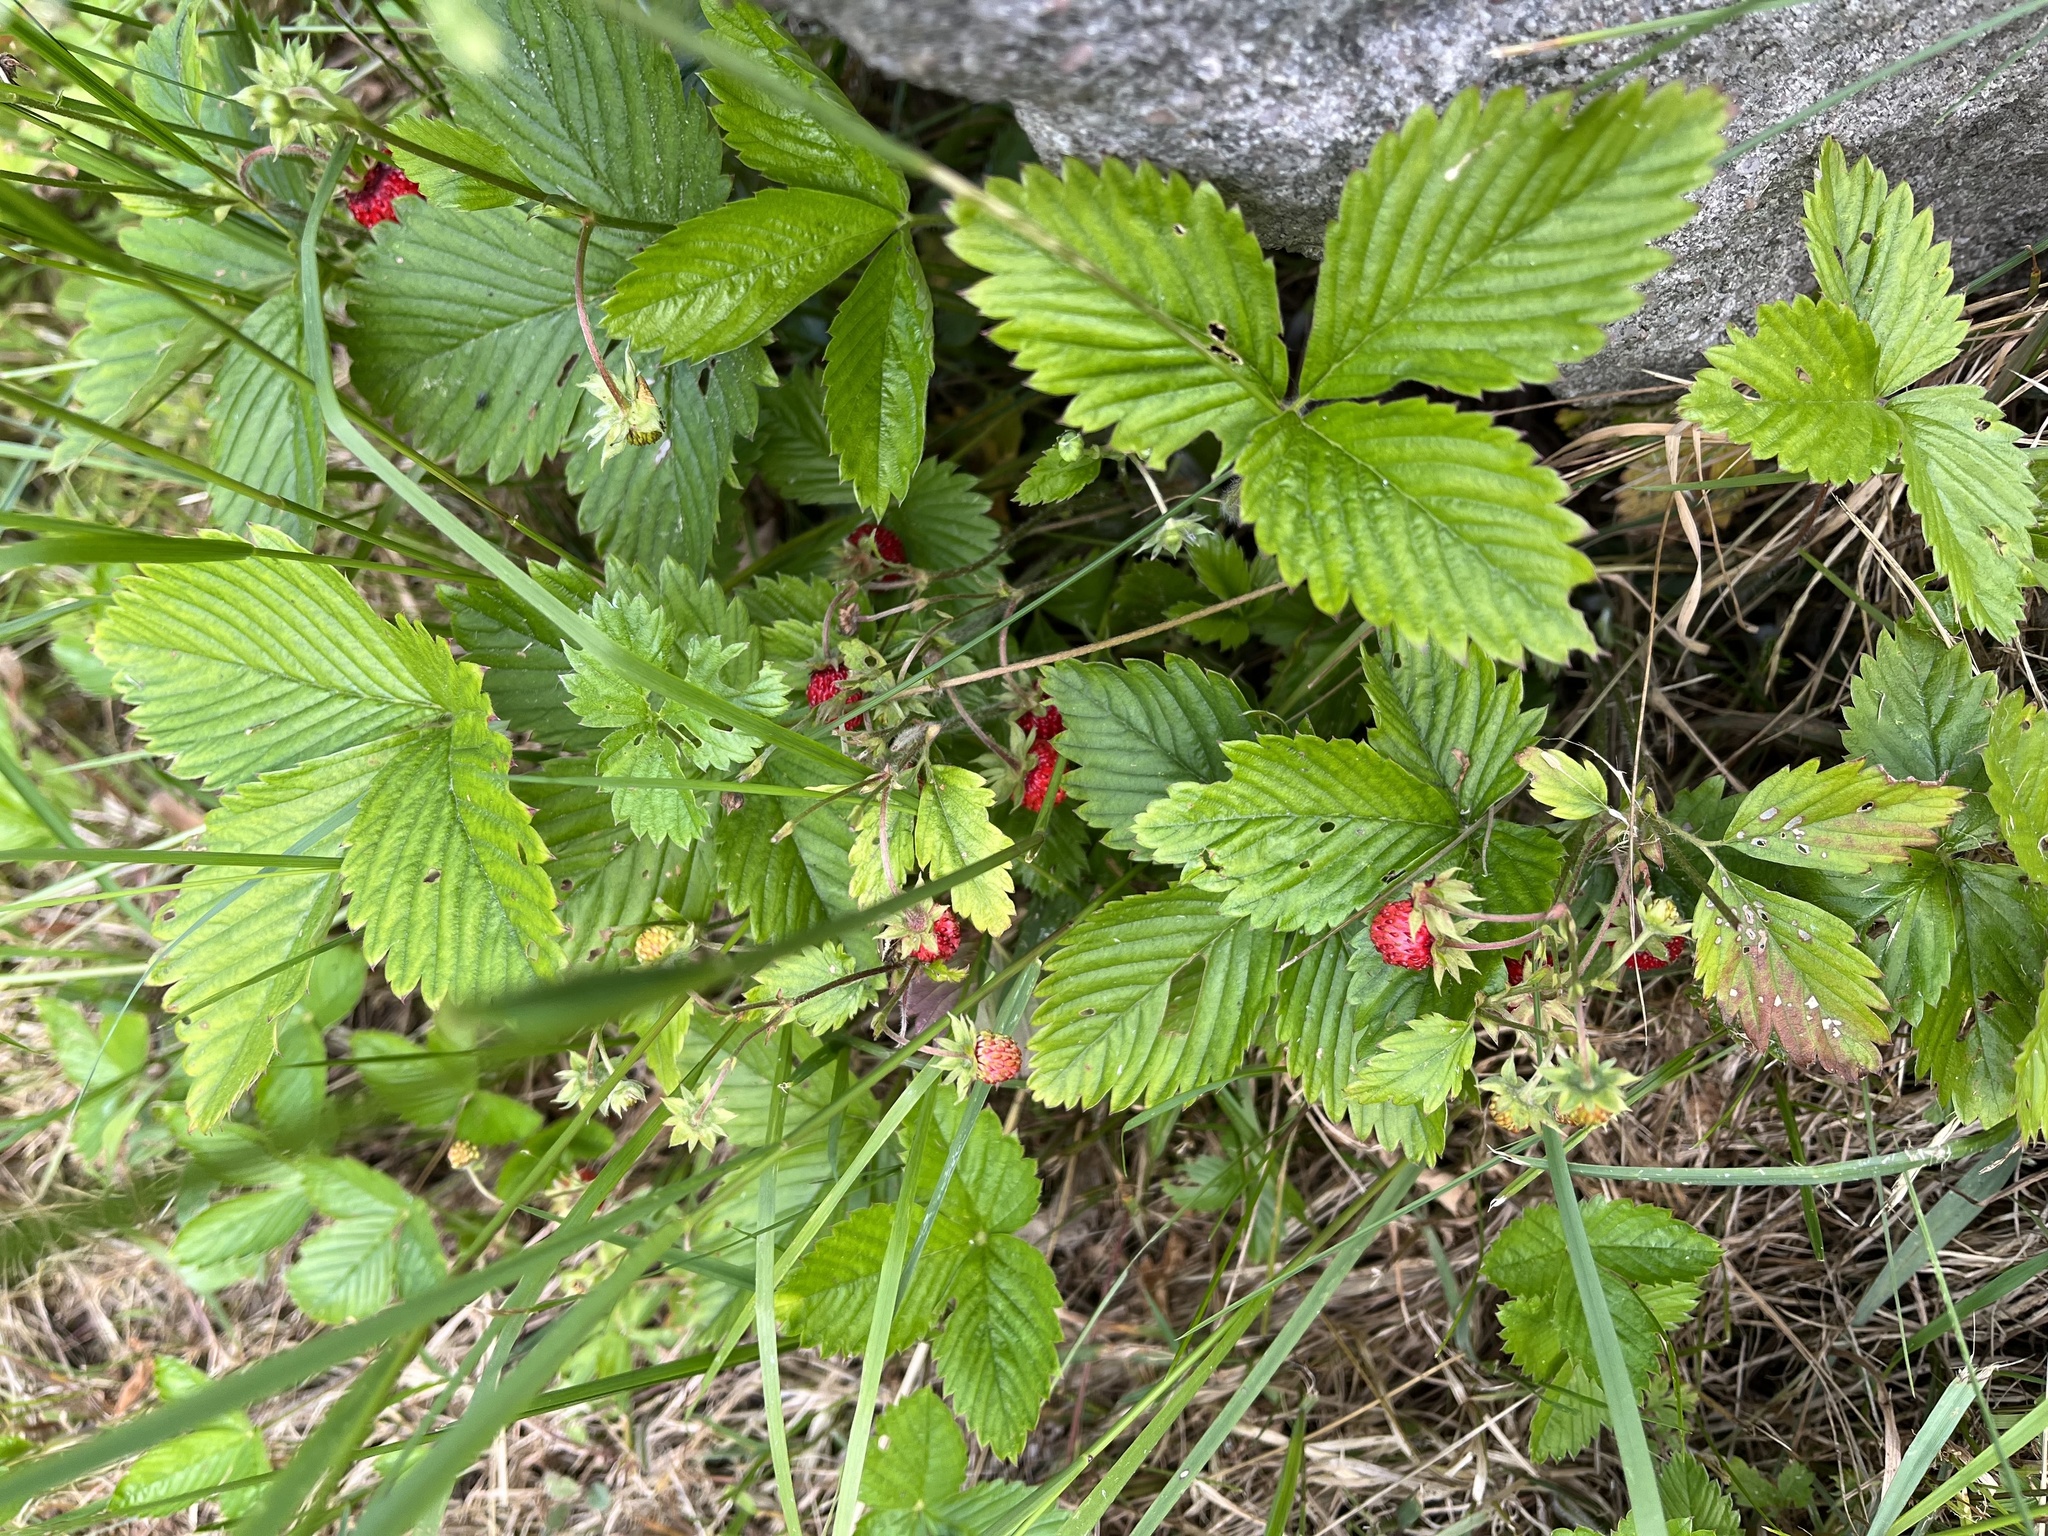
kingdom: Plantae
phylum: Tracheophyta
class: Magnoliopsida
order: Rosales
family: Rosaceae
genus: Fragaria
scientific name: Fragaria vesca
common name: Wild strawberry
